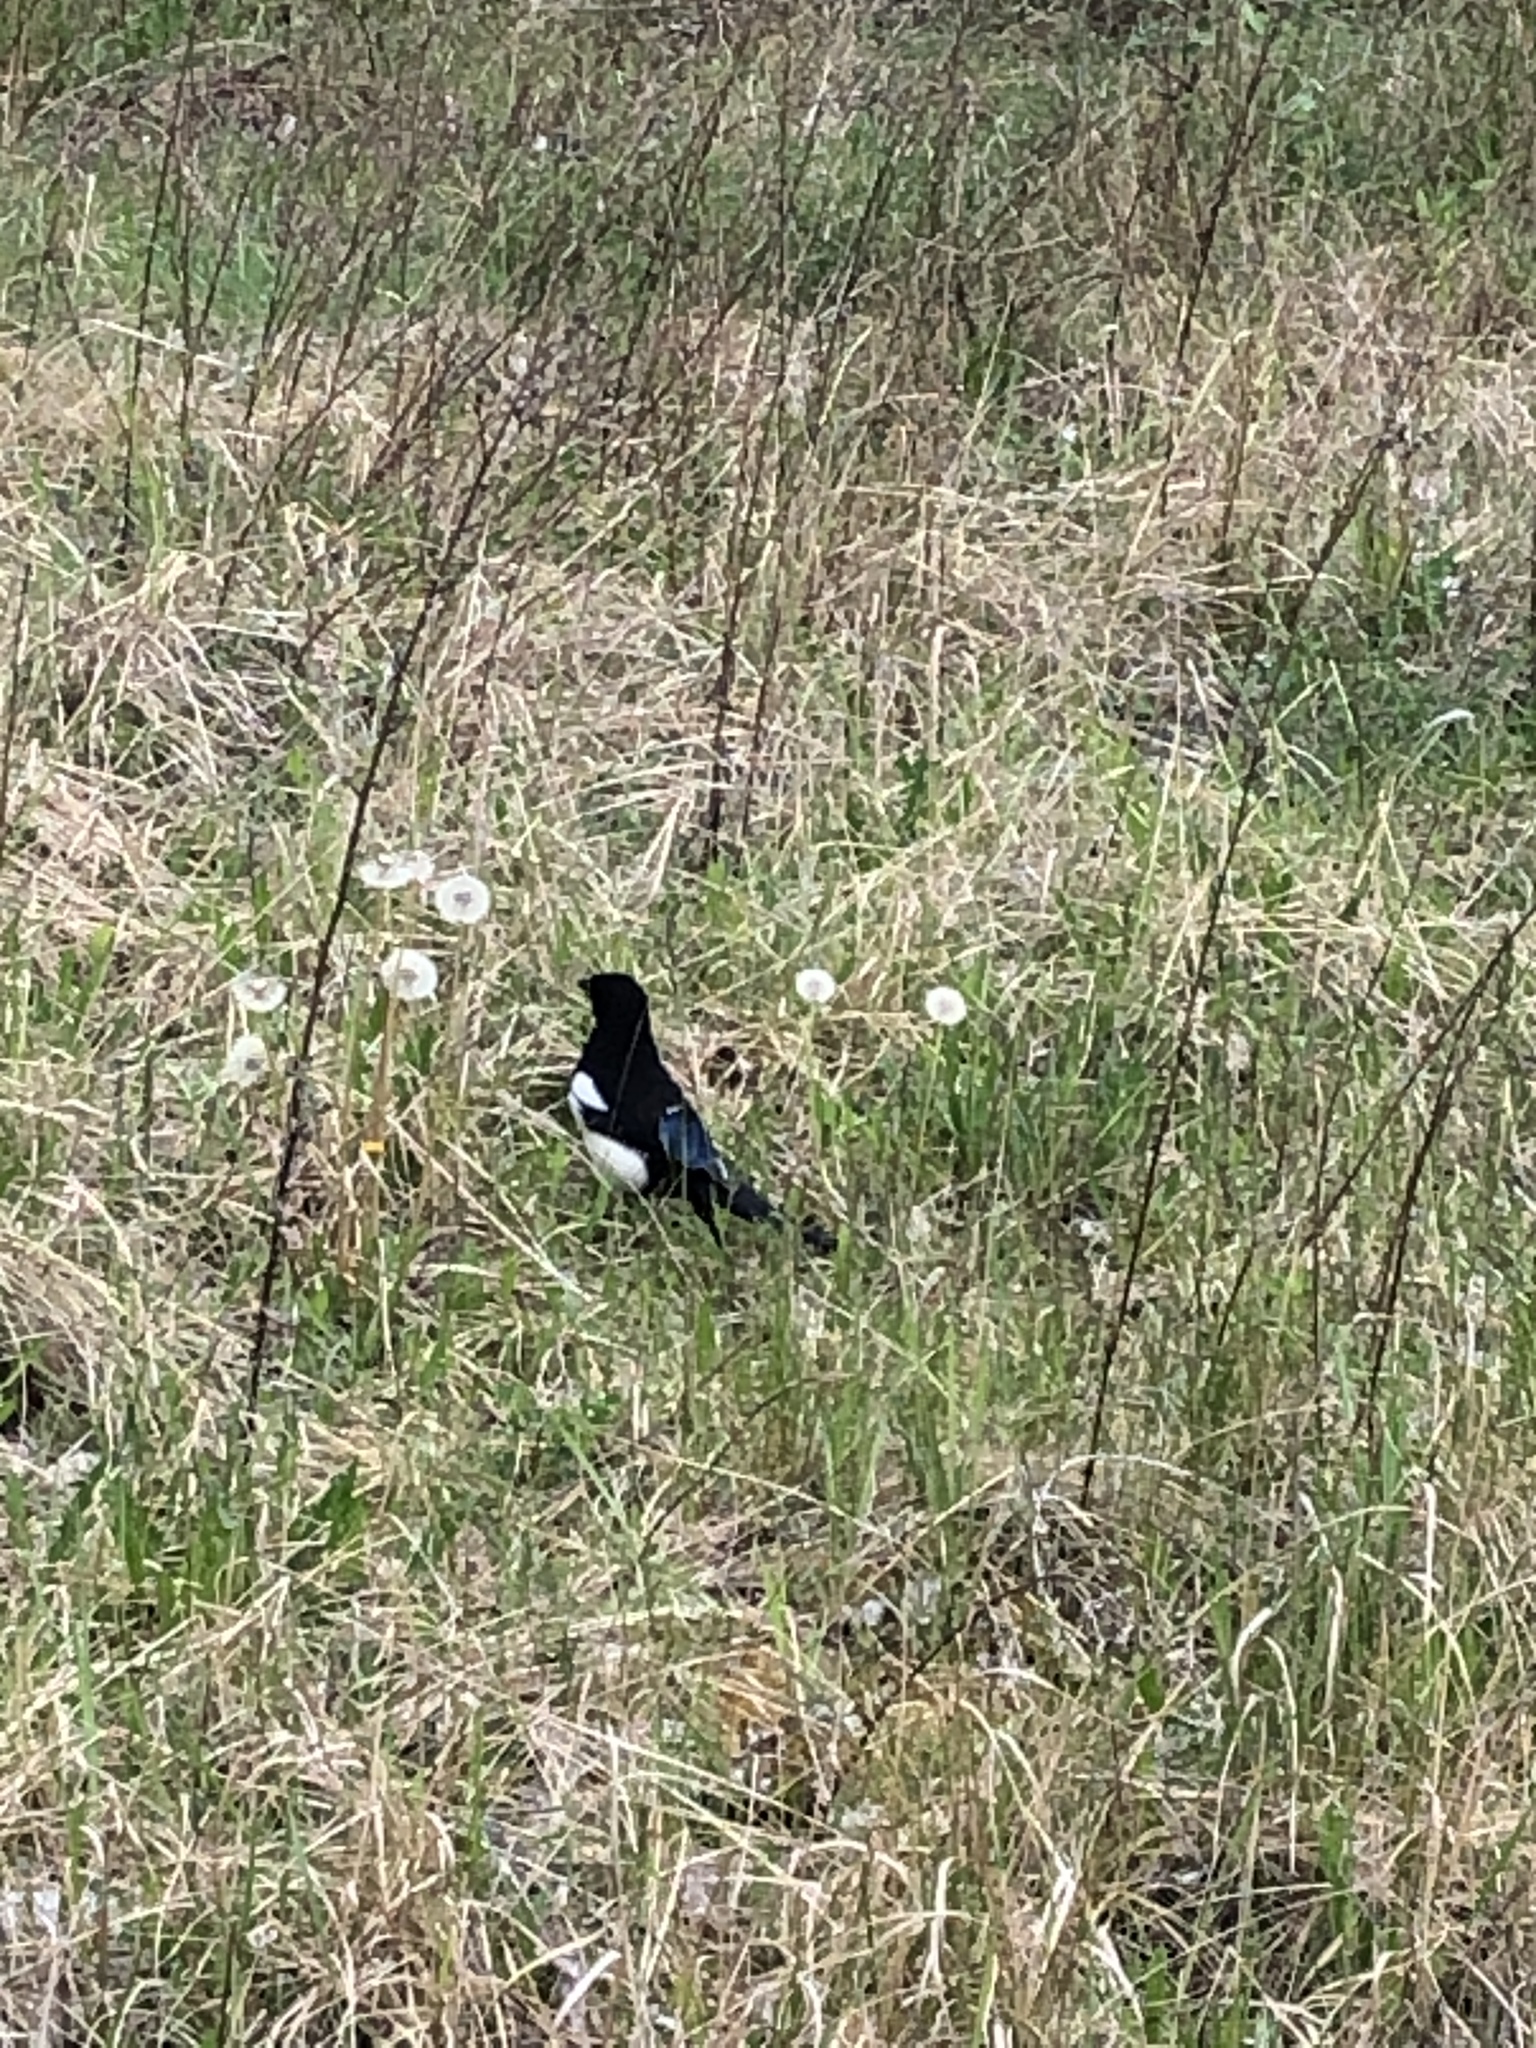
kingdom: Animalia
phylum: Chordata
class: Aves
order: Passeriformes
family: Corvidae
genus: Pica
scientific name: Pica pica
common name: Eurasian magpie
